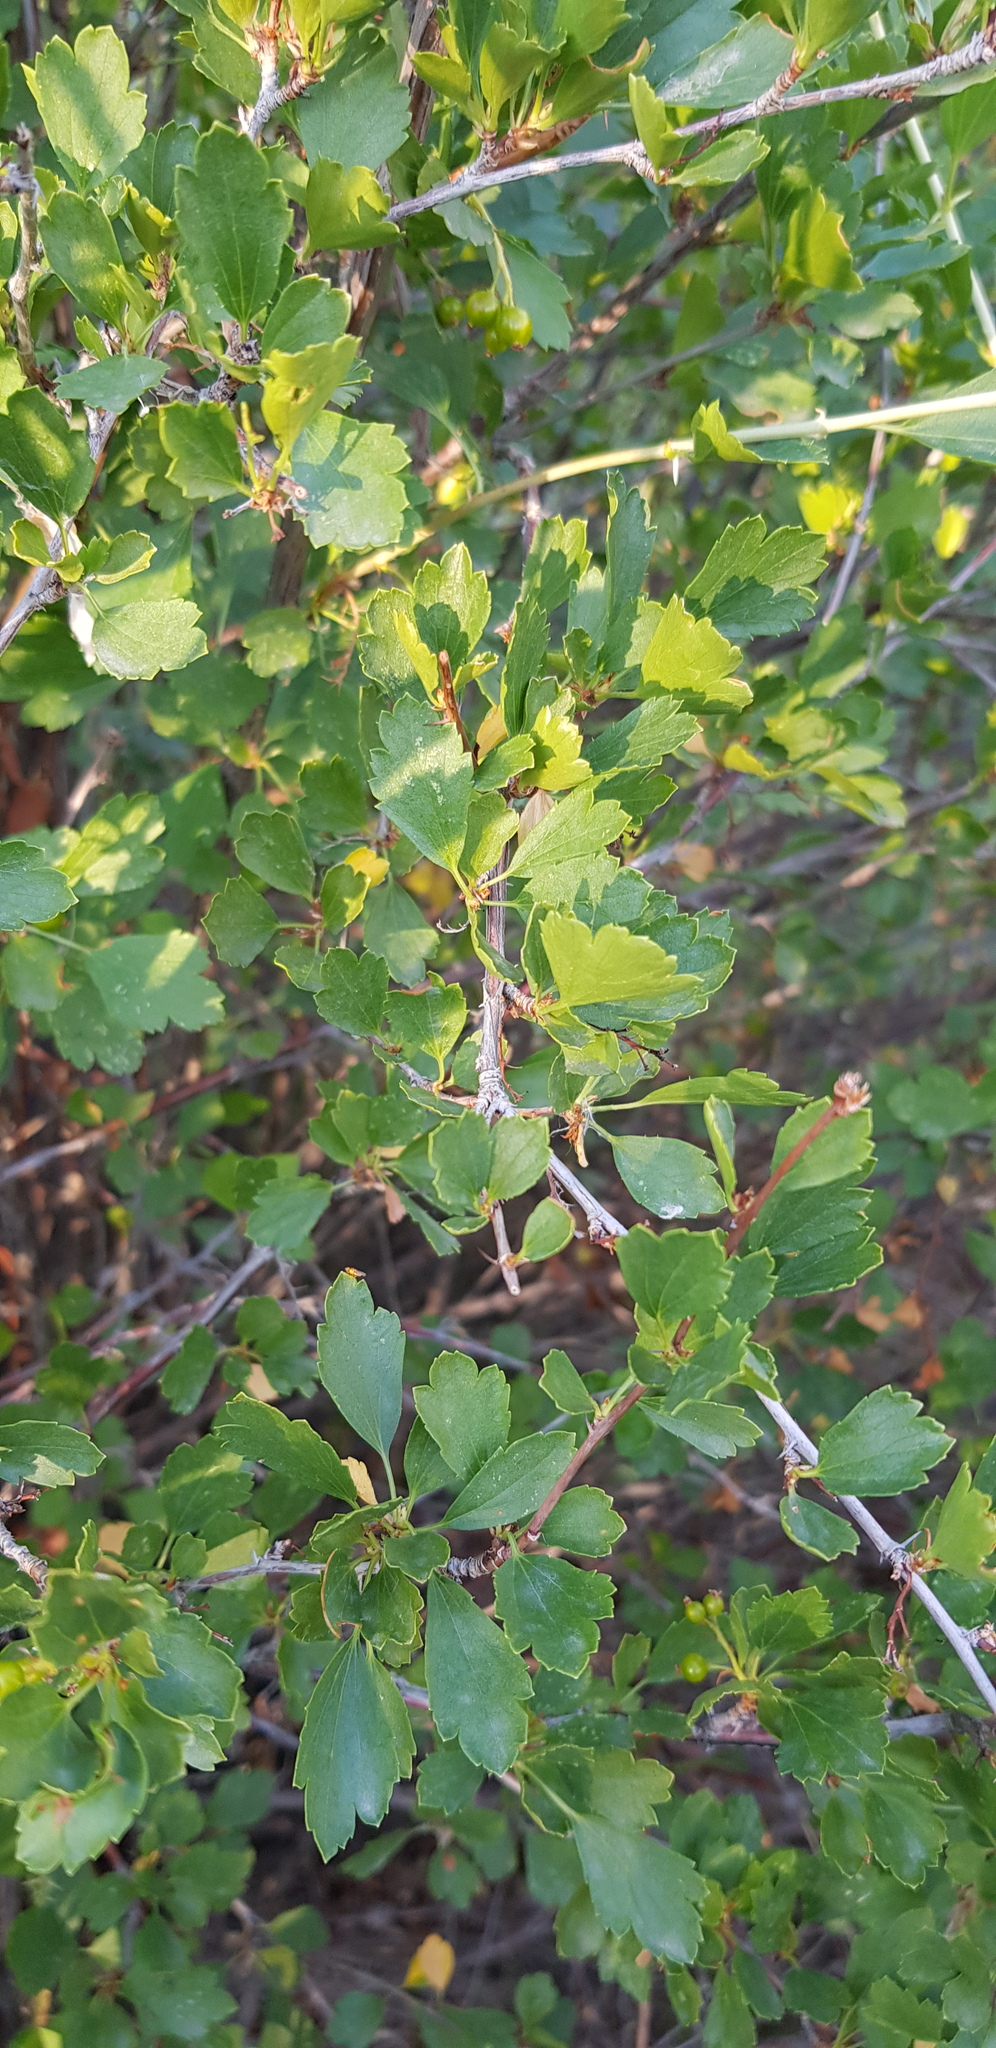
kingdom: Plantae
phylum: Tracheophyta
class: Magnoliopsida
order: Saxifragales
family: Grossulariaceae
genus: Ribes
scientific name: Ribes diacanthum
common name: Siberian currant
